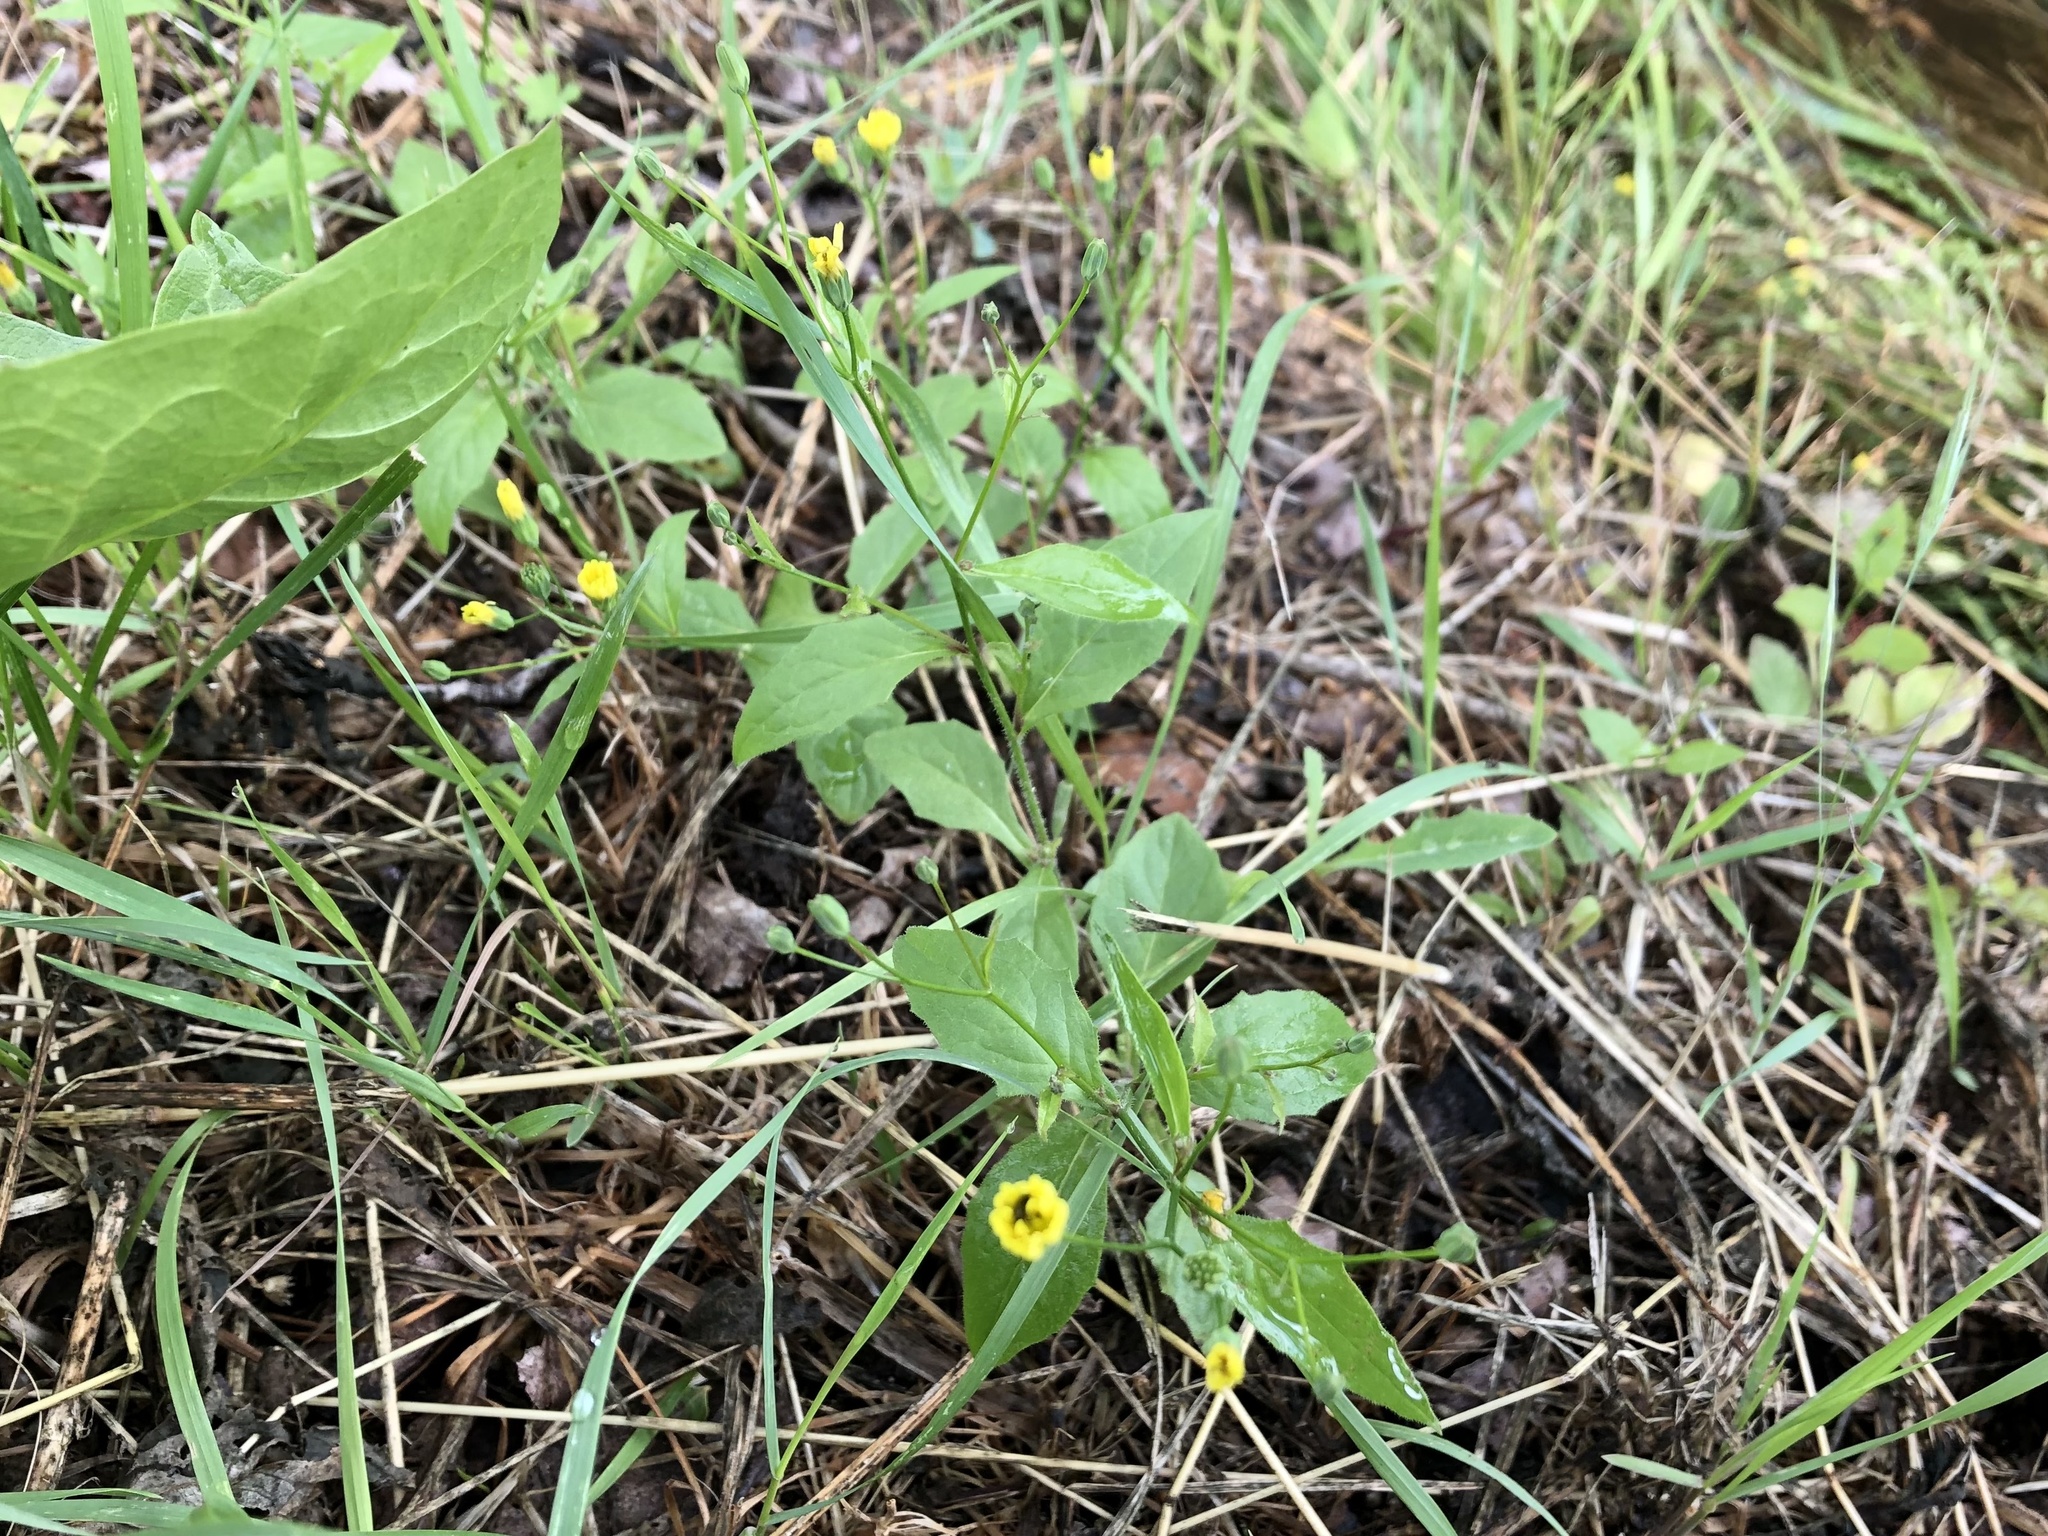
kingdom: Plantae
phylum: Tracheophyta
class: Magnoliopsida
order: Asterales
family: Asteraceae
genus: Lapsana
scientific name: Lapsana communis
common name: Nipplewort
